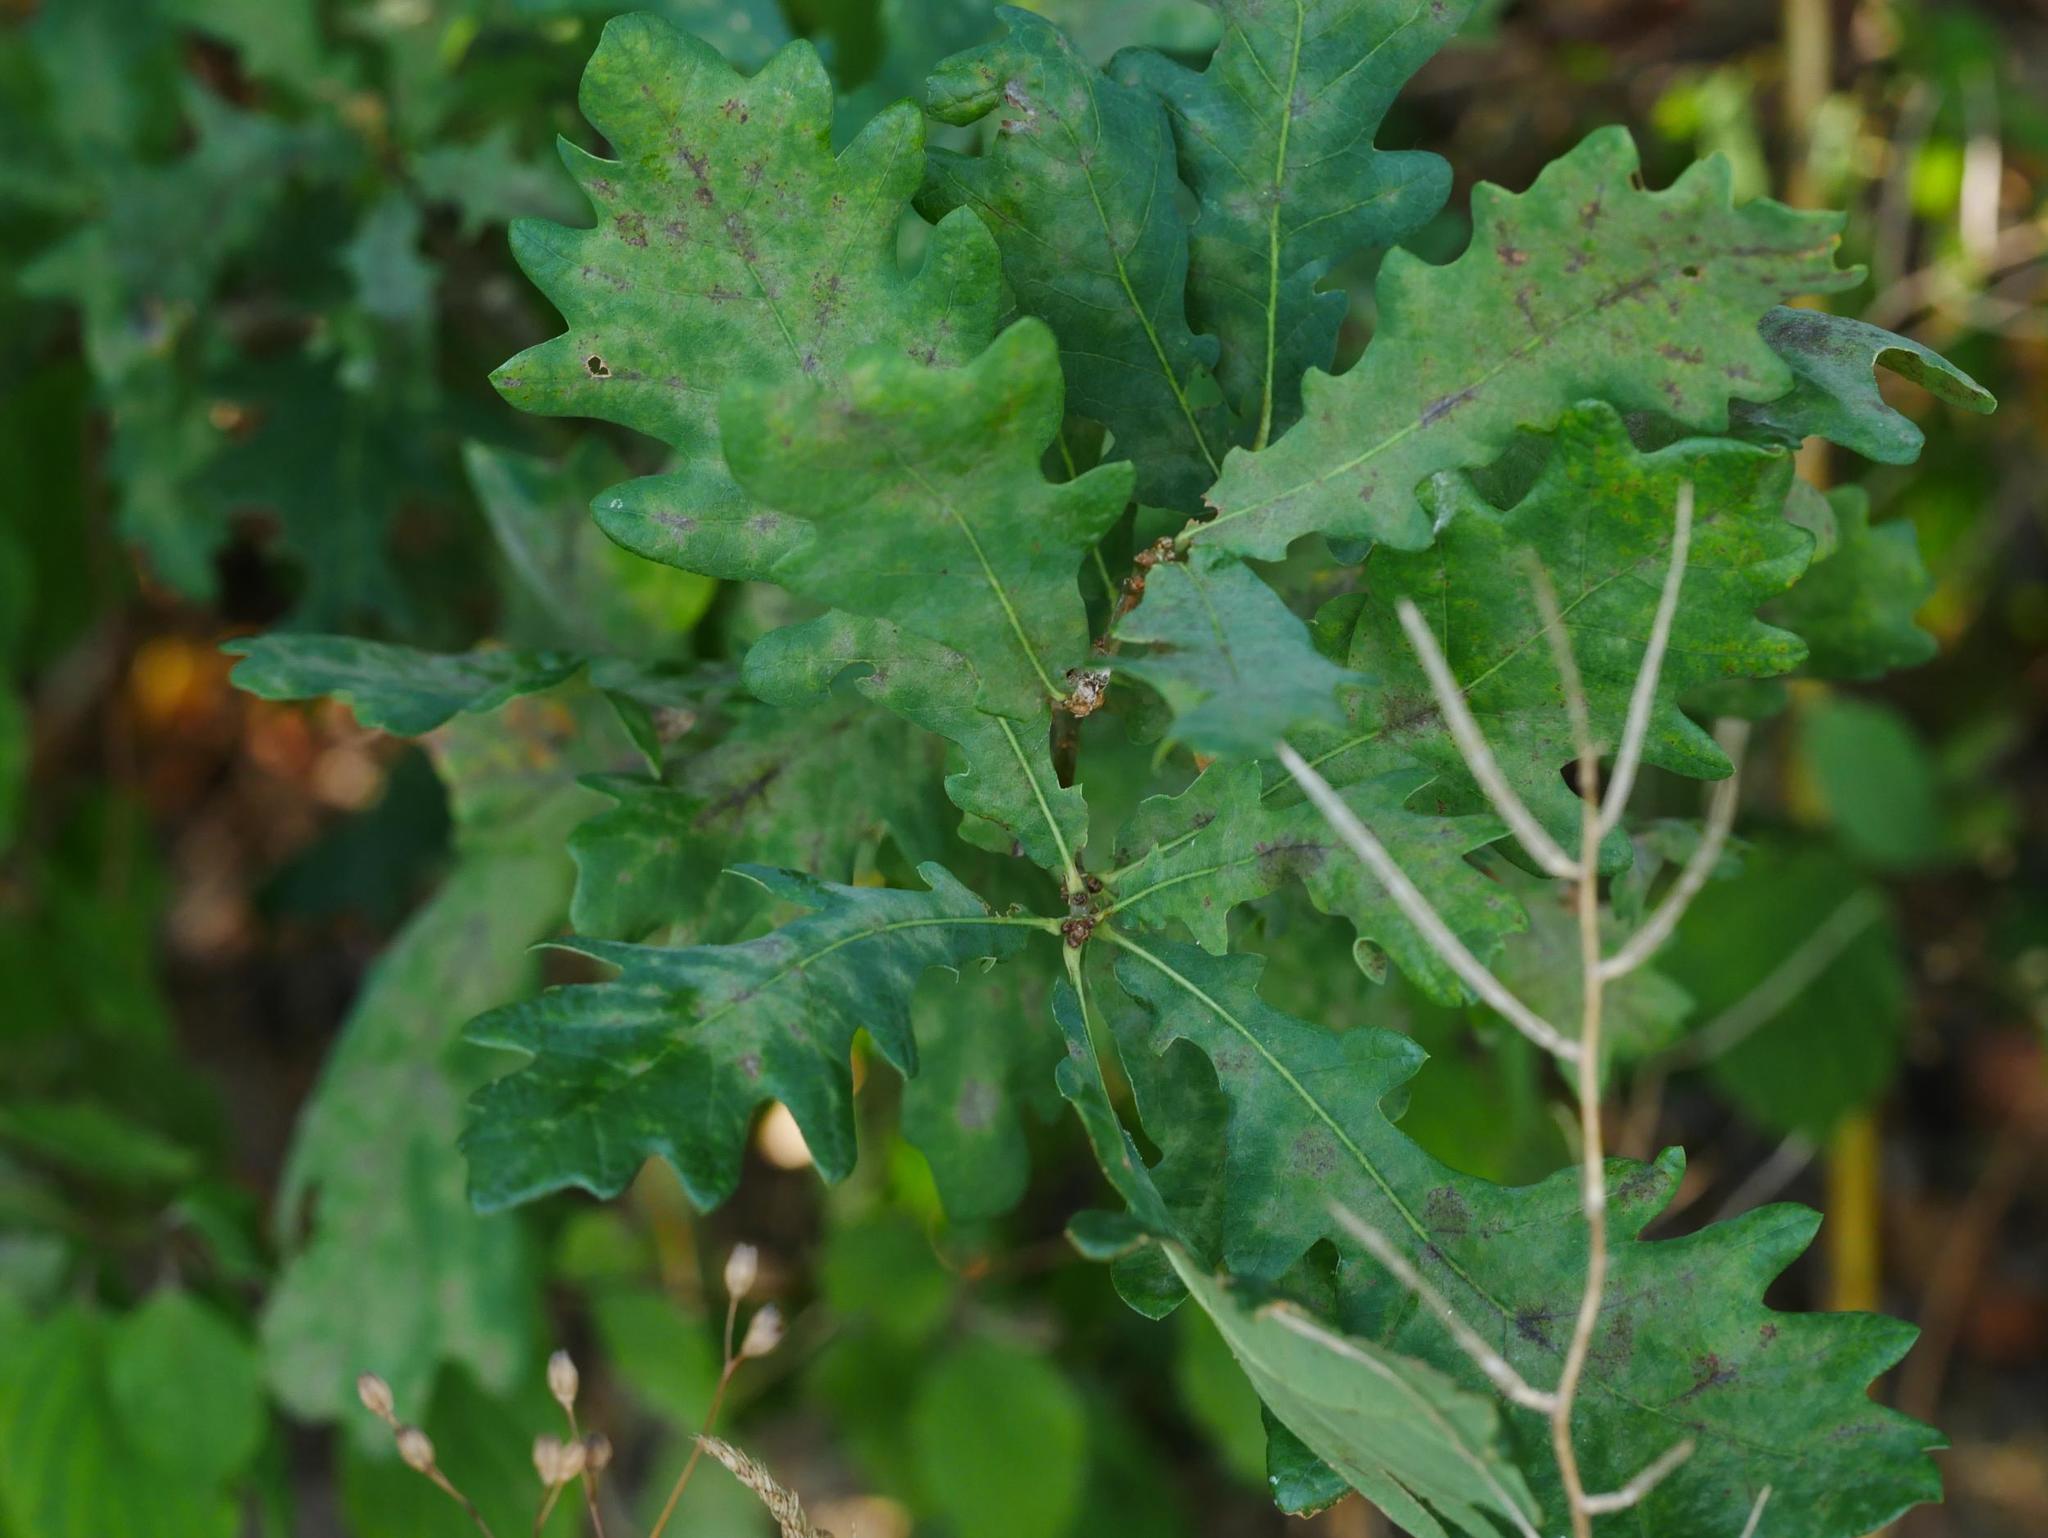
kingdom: Plantae
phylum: Tracheophyta
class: Magnoliopsida
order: Fagales
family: Fagaceae
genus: Quercus
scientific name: Quercus robur
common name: Pedunculate oak
